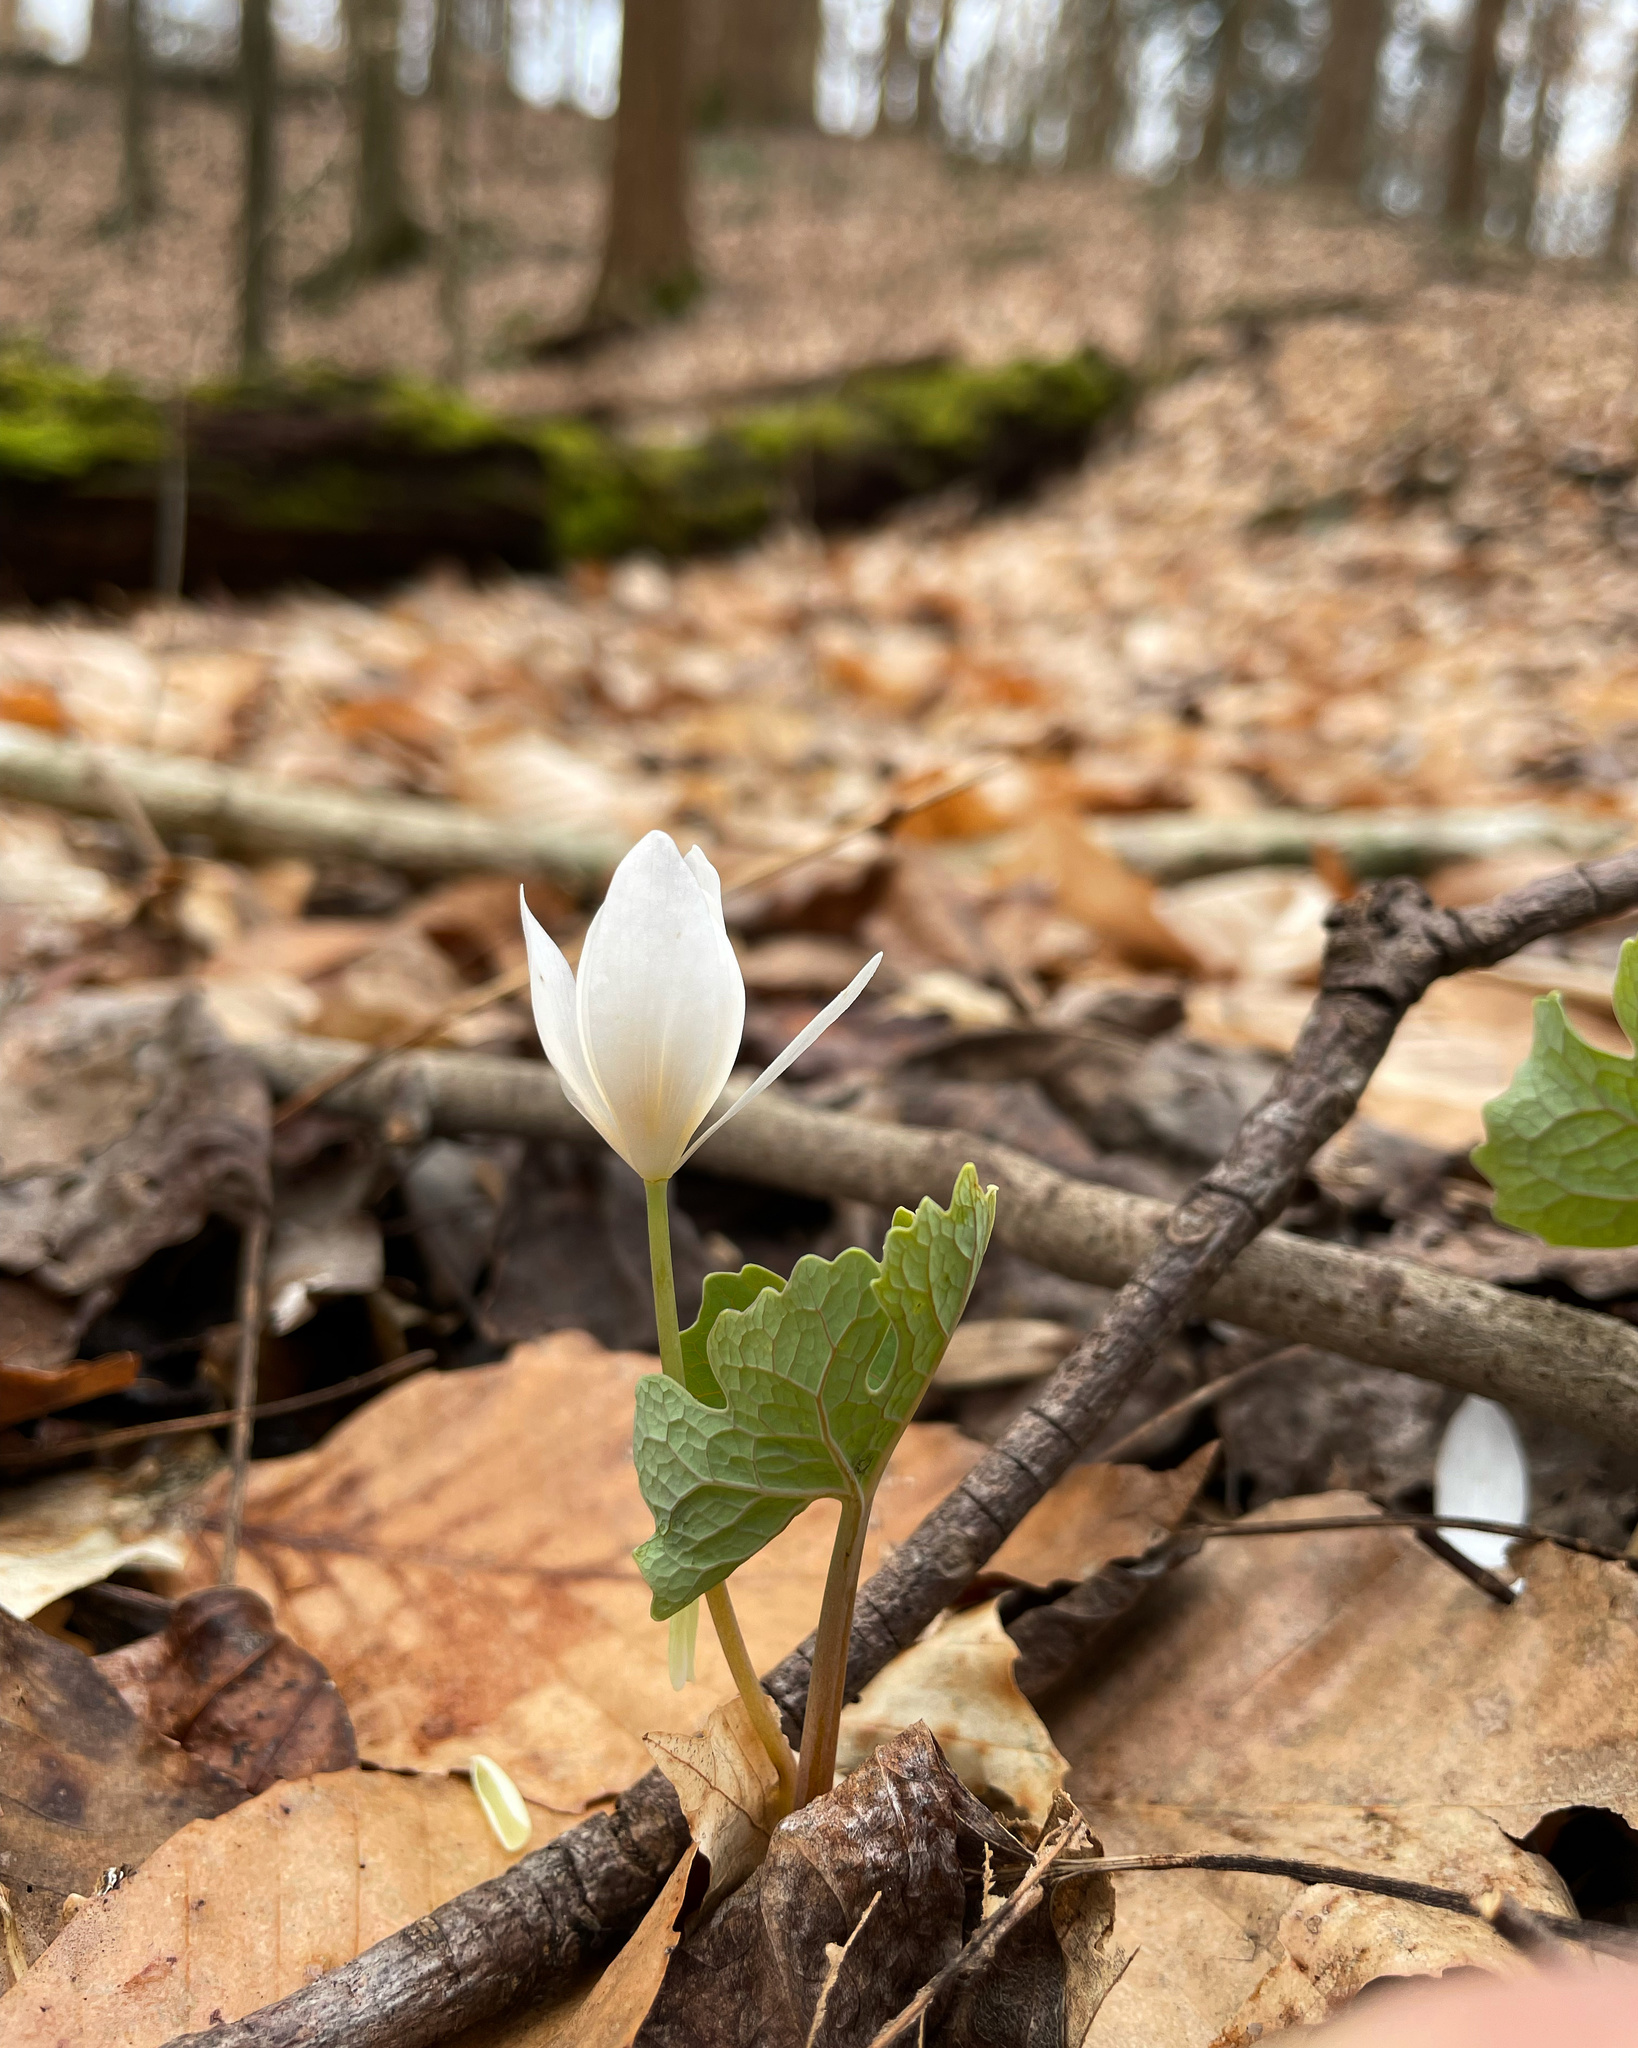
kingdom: Plantae
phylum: Tracheophyta
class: Magnoliopsida
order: Ranunculales
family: Papaveraceae
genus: Sanguinaria
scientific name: Sanguinaria canadensis
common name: Bloodroot
